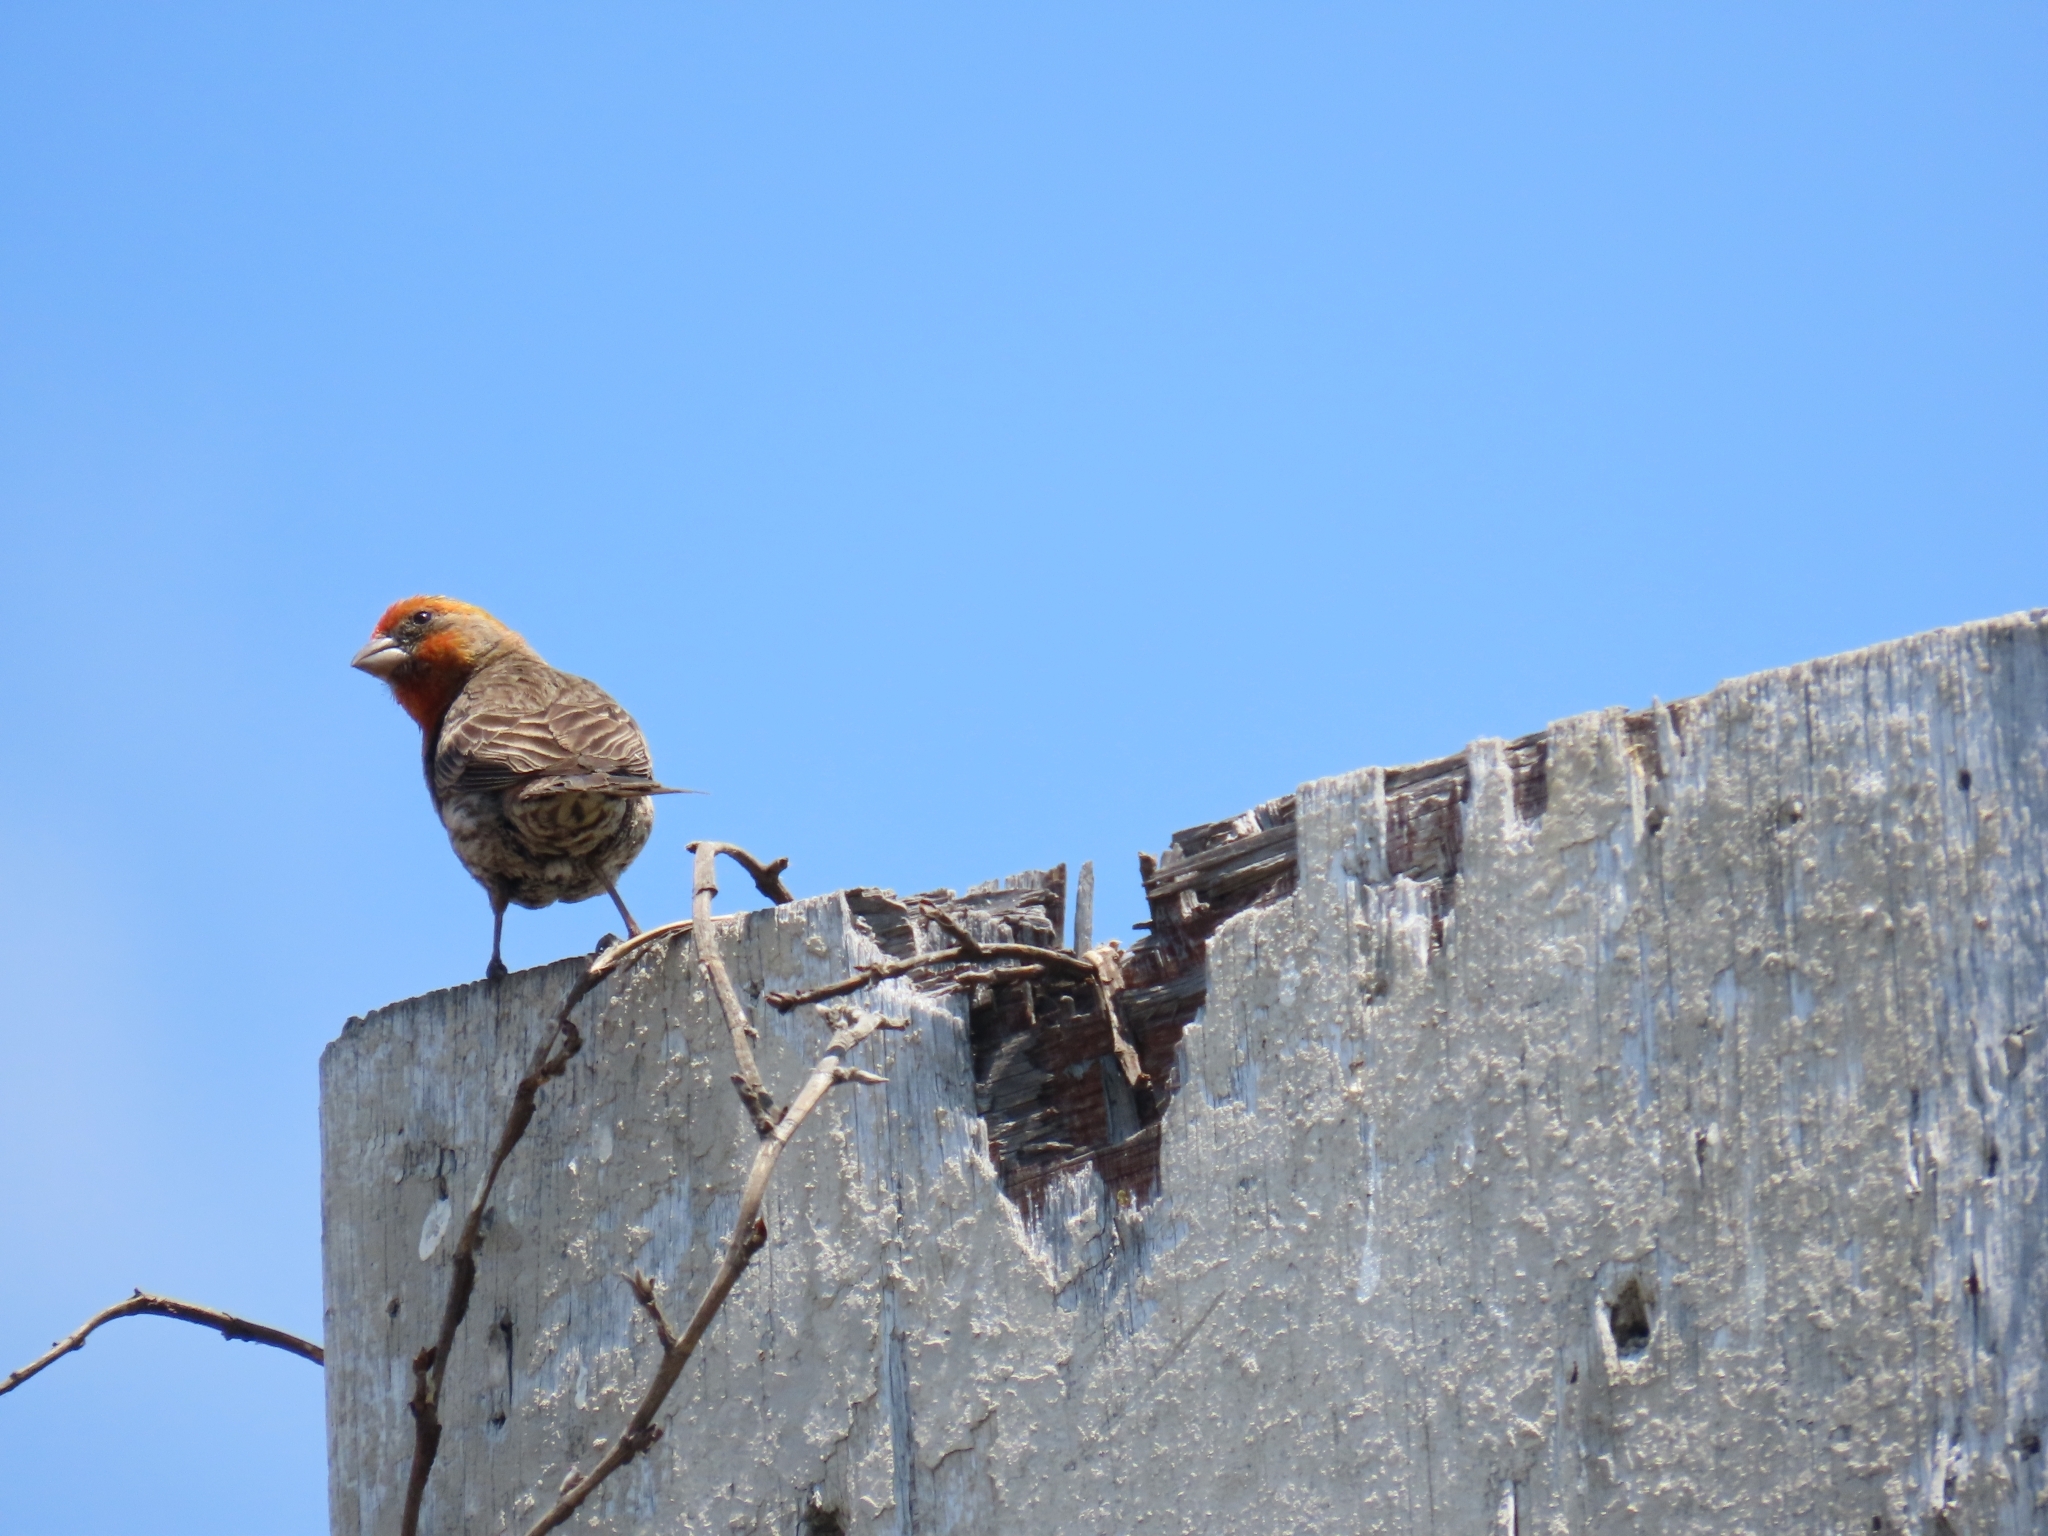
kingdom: Animalia
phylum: Chordata
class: Aves
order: Passeriformes
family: Fringillidae
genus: Haemorhous
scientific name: Haemorhous mexicanus
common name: House finch
